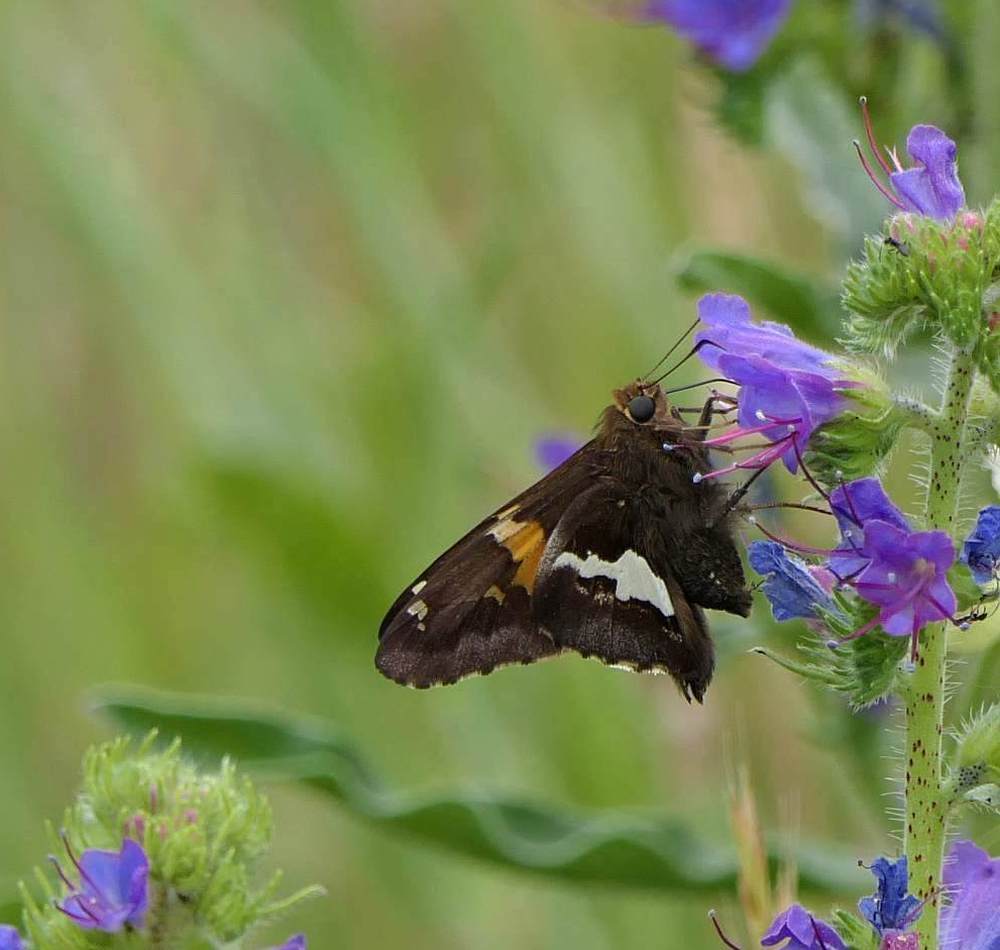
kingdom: Animalia
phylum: Arthropoda
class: Insecta
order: Lepidoptera
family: Hesperiidae
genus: Epargyreus
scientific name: Epargyreus clarus
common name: Silver-spotted skipper
